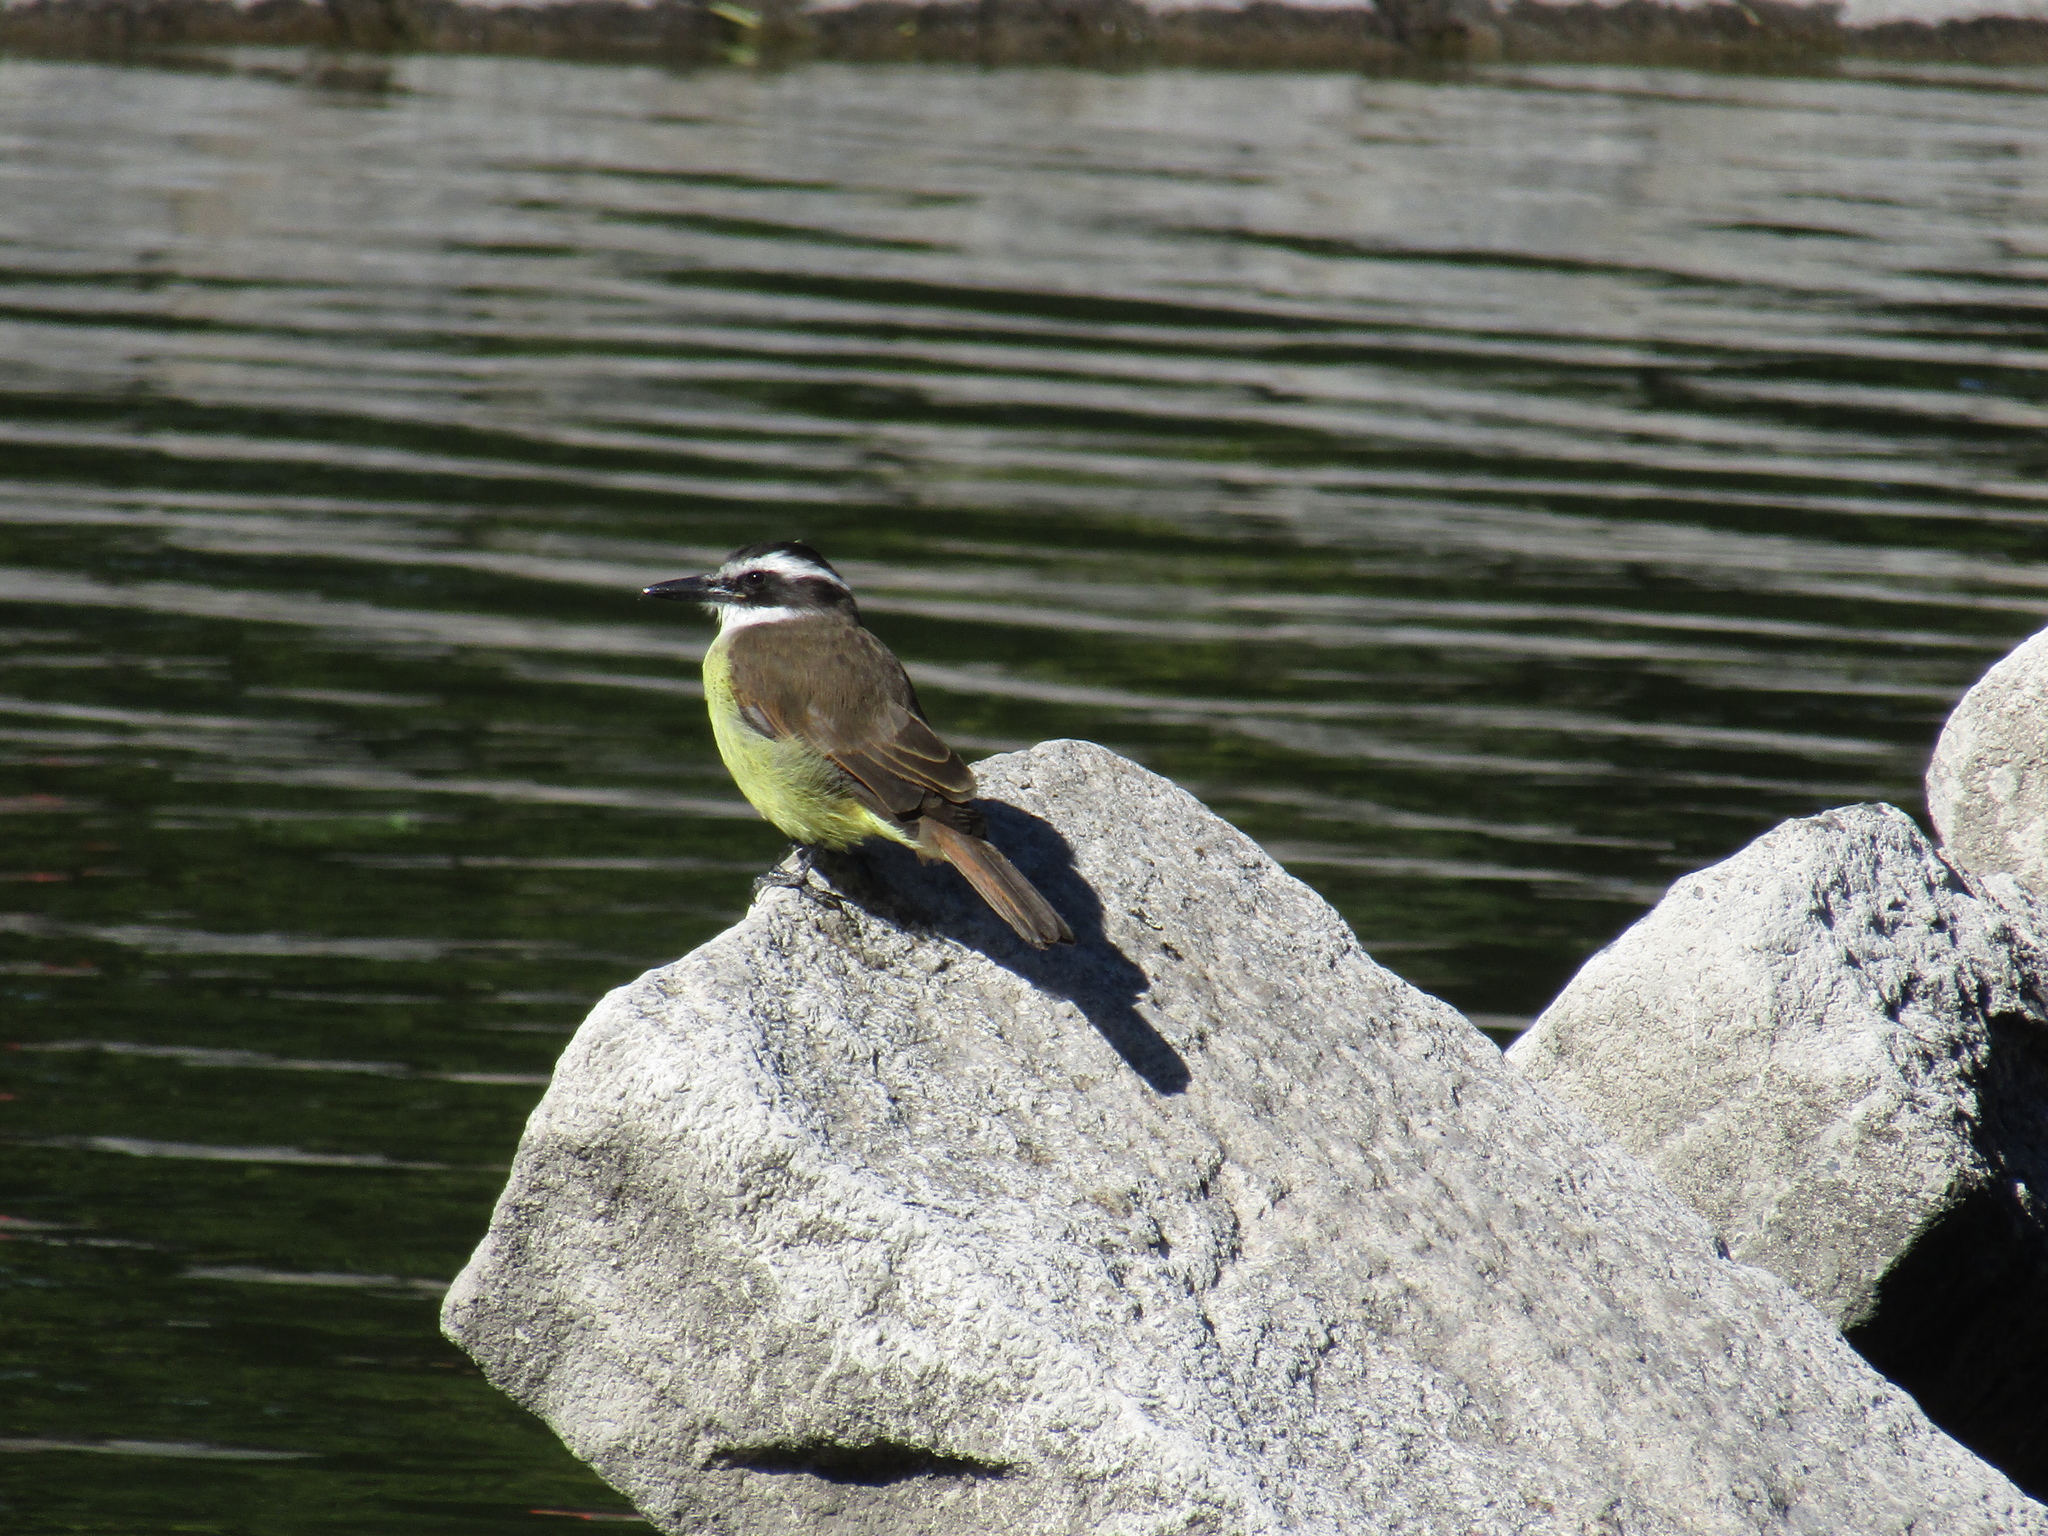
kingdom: Animalia
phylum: Chordata
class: Aves
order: Passeriformes
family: Tyrannidae
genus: Pitangus
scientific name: Pitangus sulphuratus
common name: Great kiskadee
